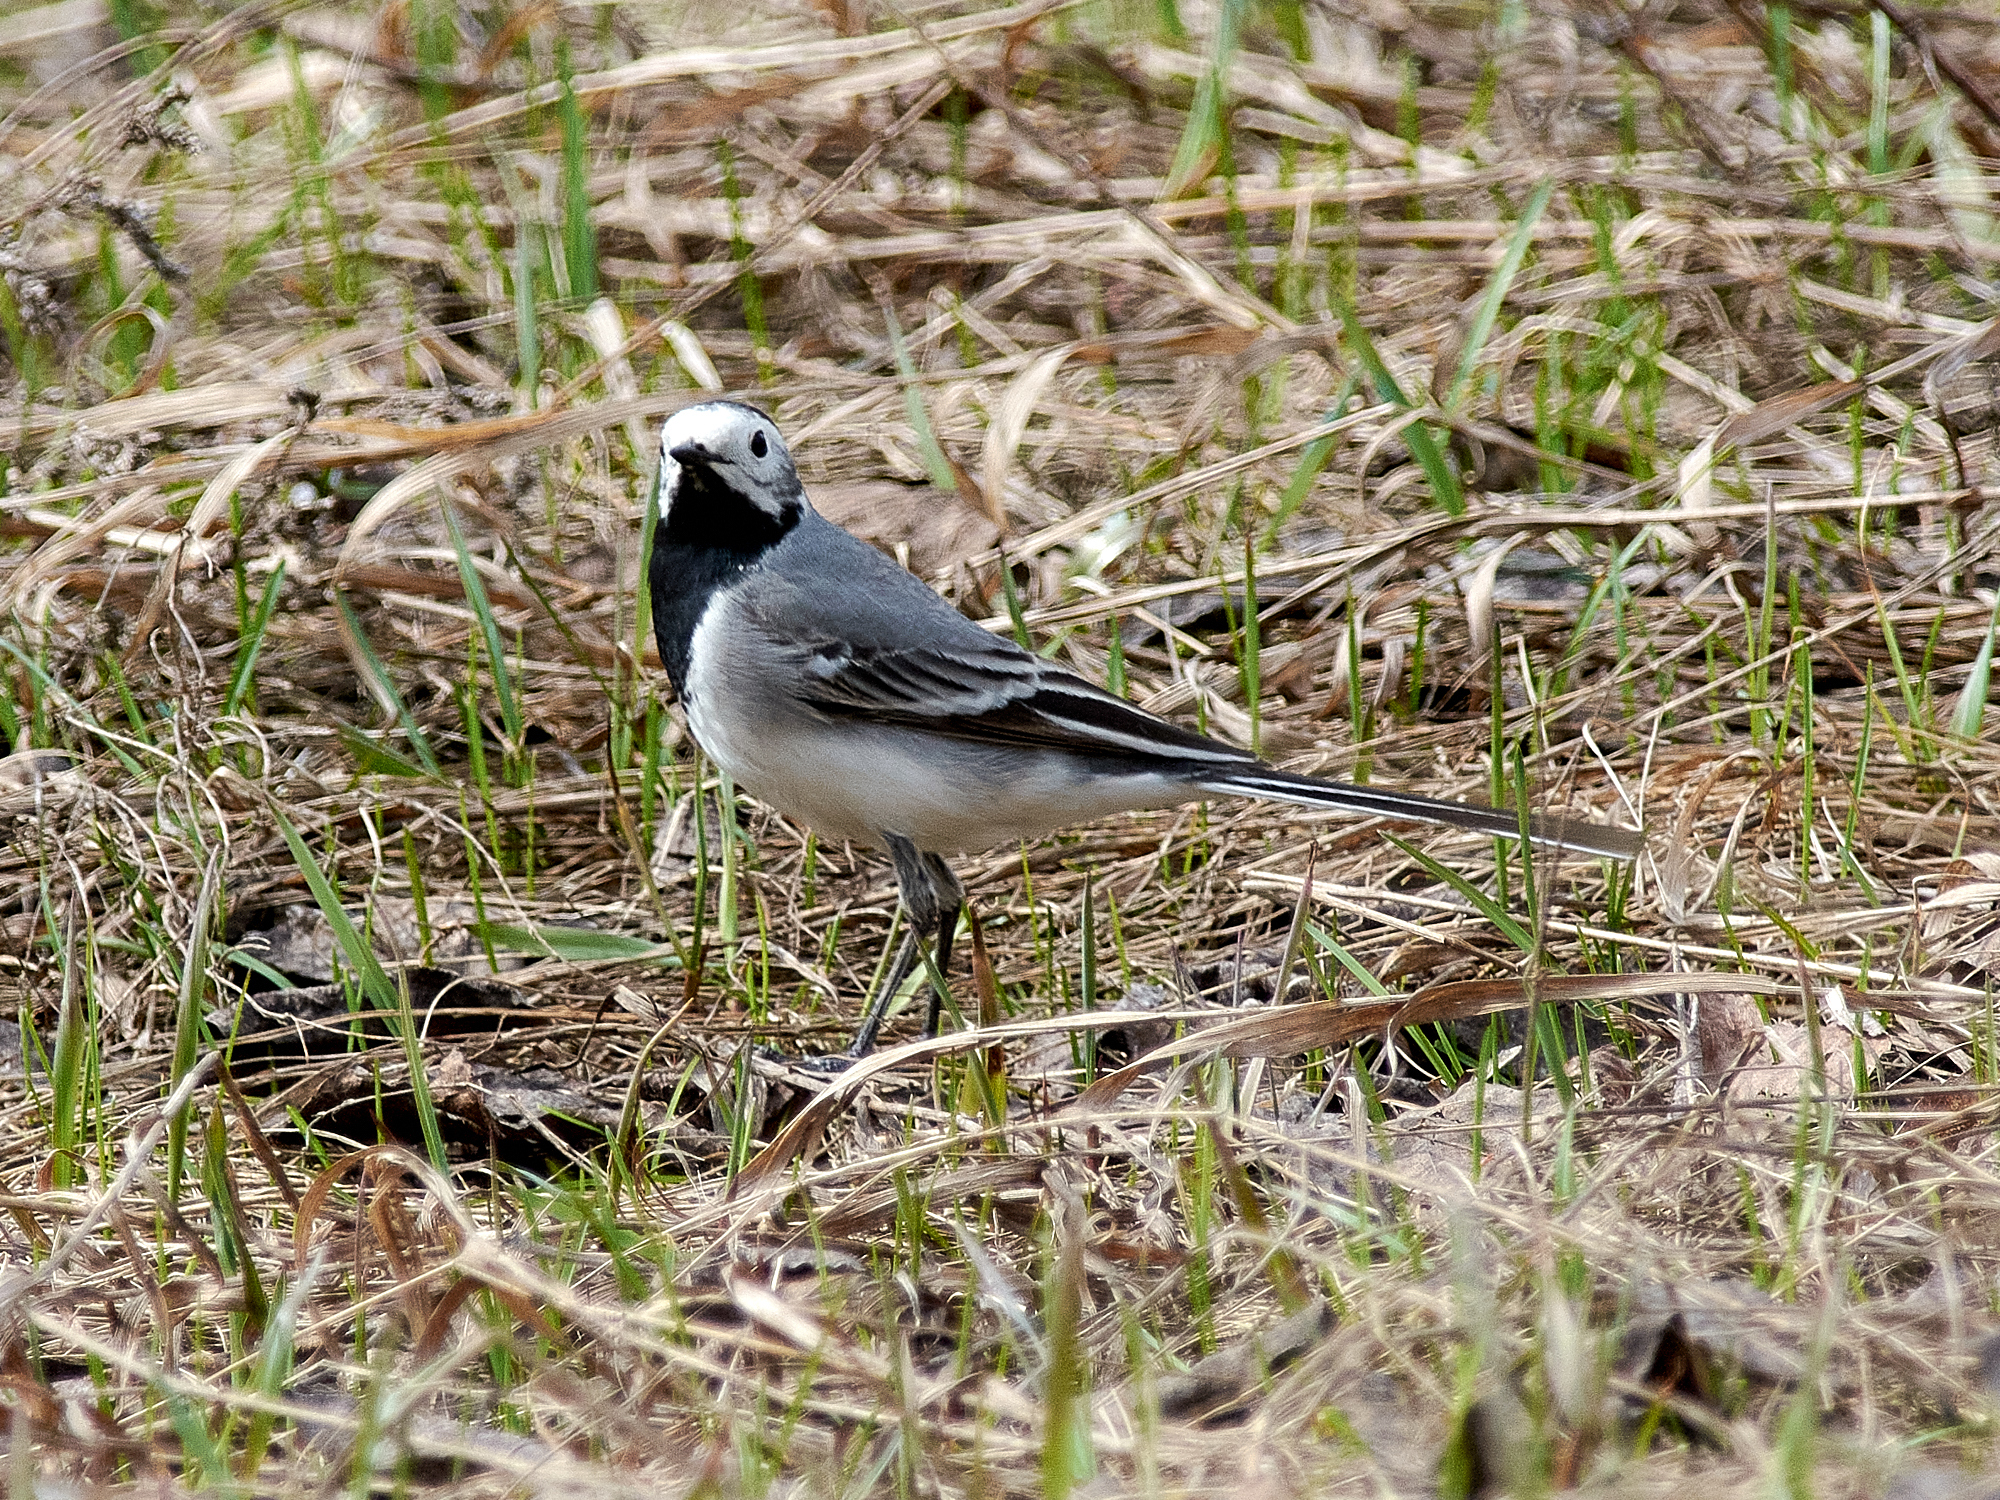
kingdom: Animalia
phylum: Chordata
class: Aves
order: Passeriformes
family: Motacillidae
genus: Motacilla
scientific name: Motacilla alba
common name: White wagtail
